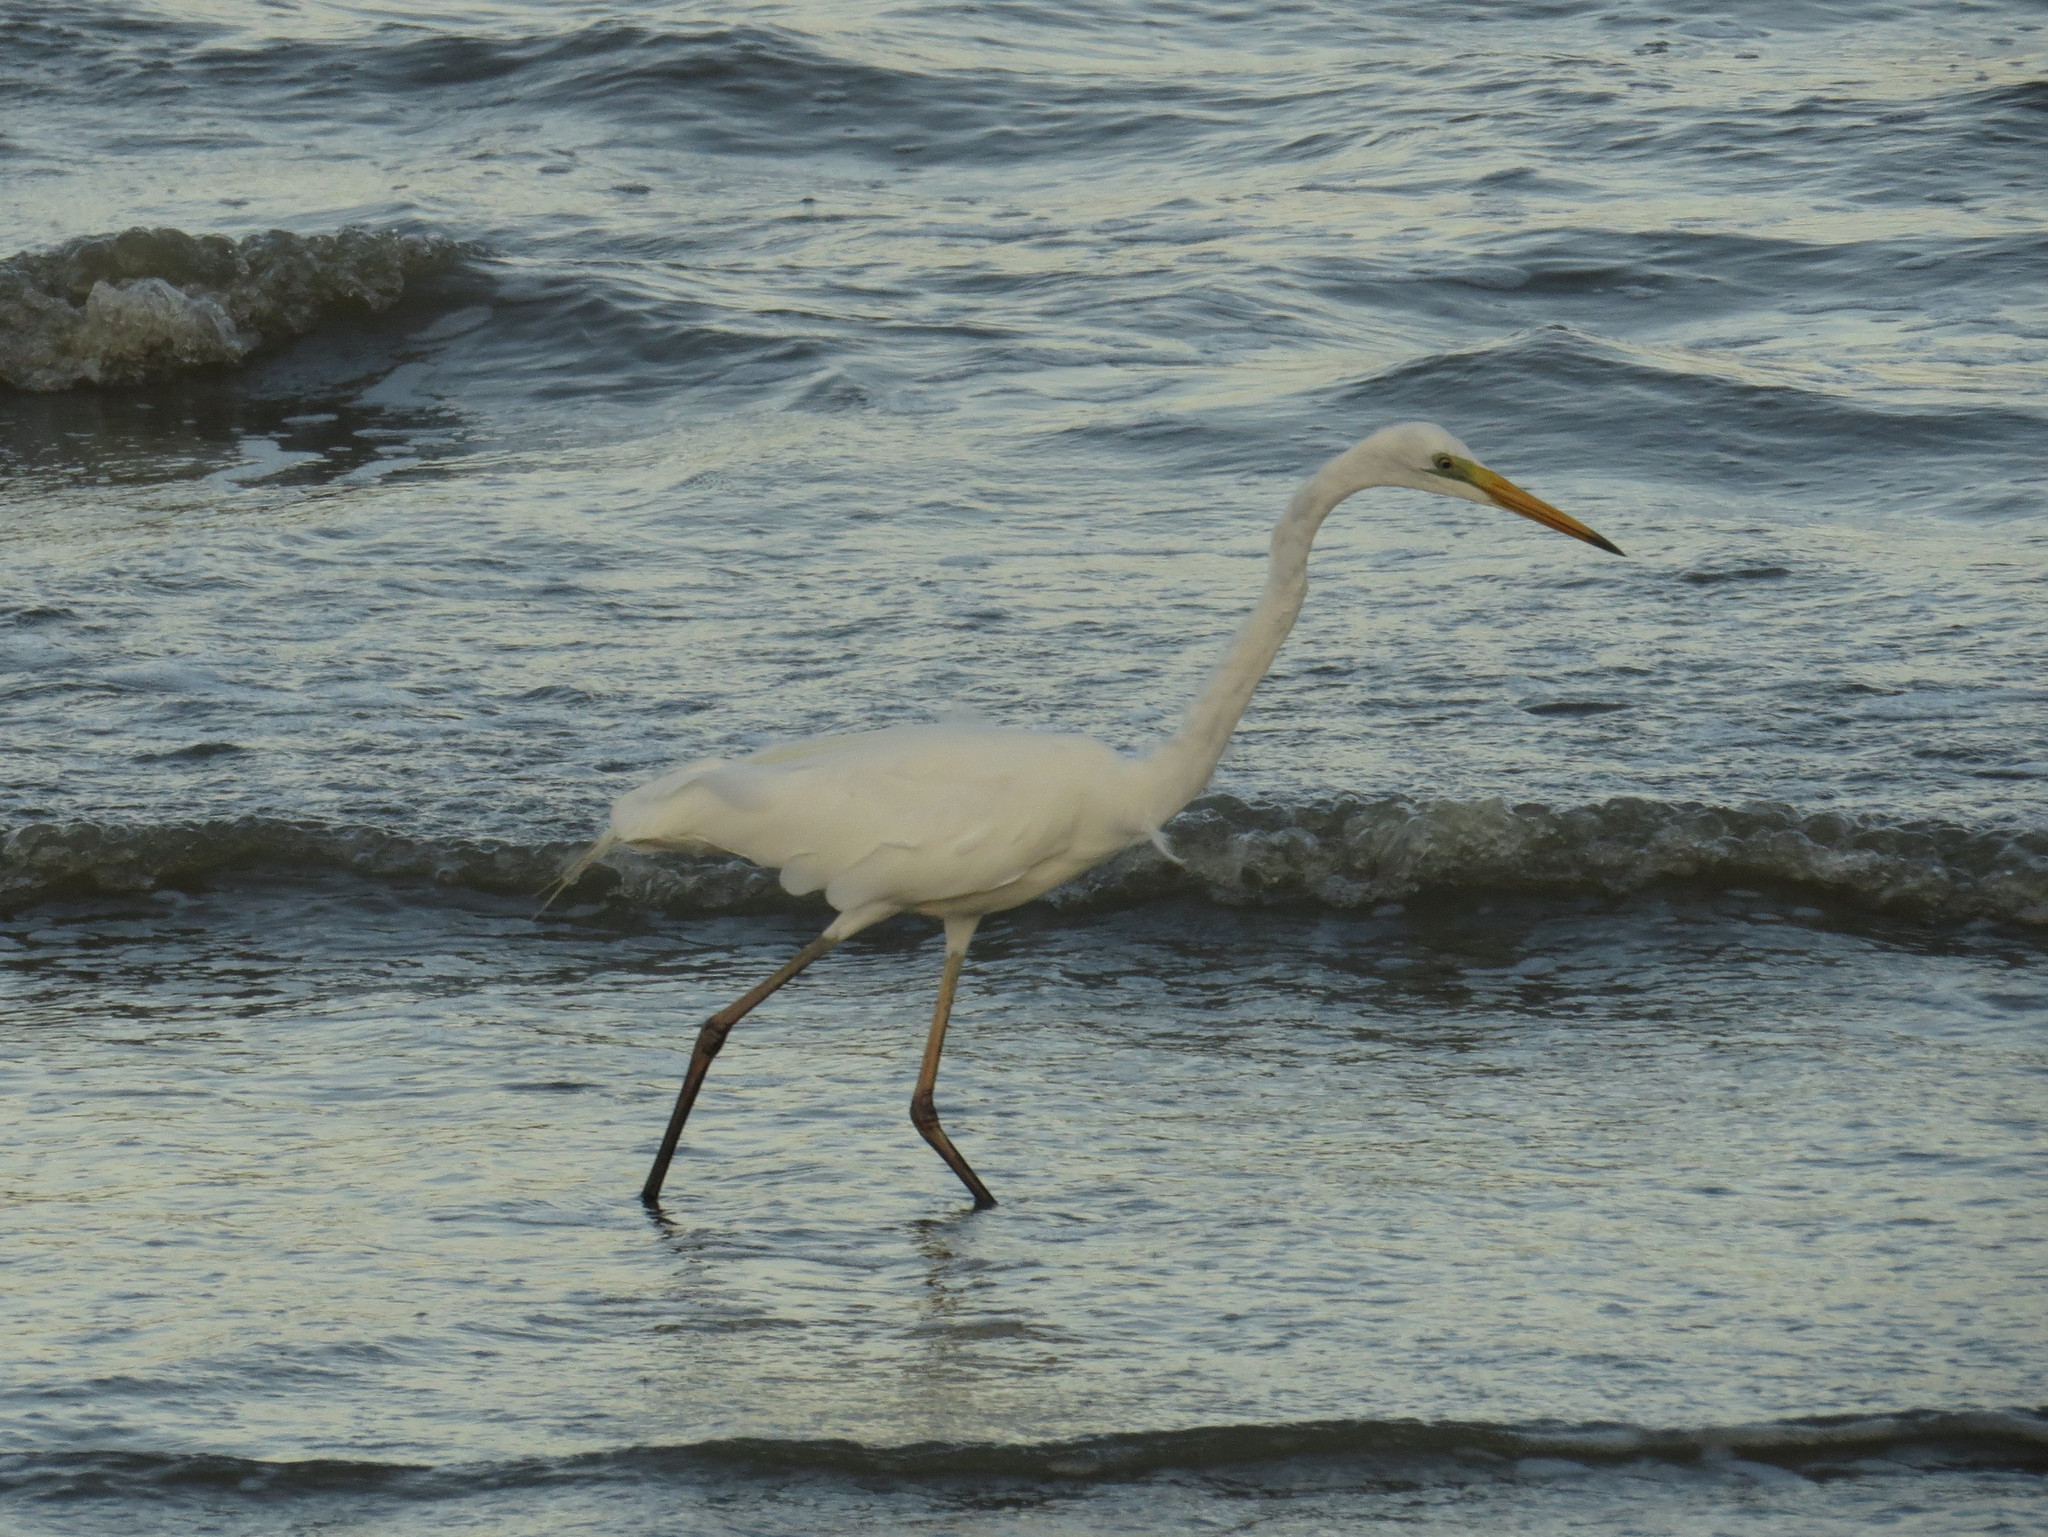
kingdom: Animalia
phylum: Chordata
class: Aves
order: Pelecaniformes
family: Ardeidae
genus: Ardea
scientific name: Ardea modesta
